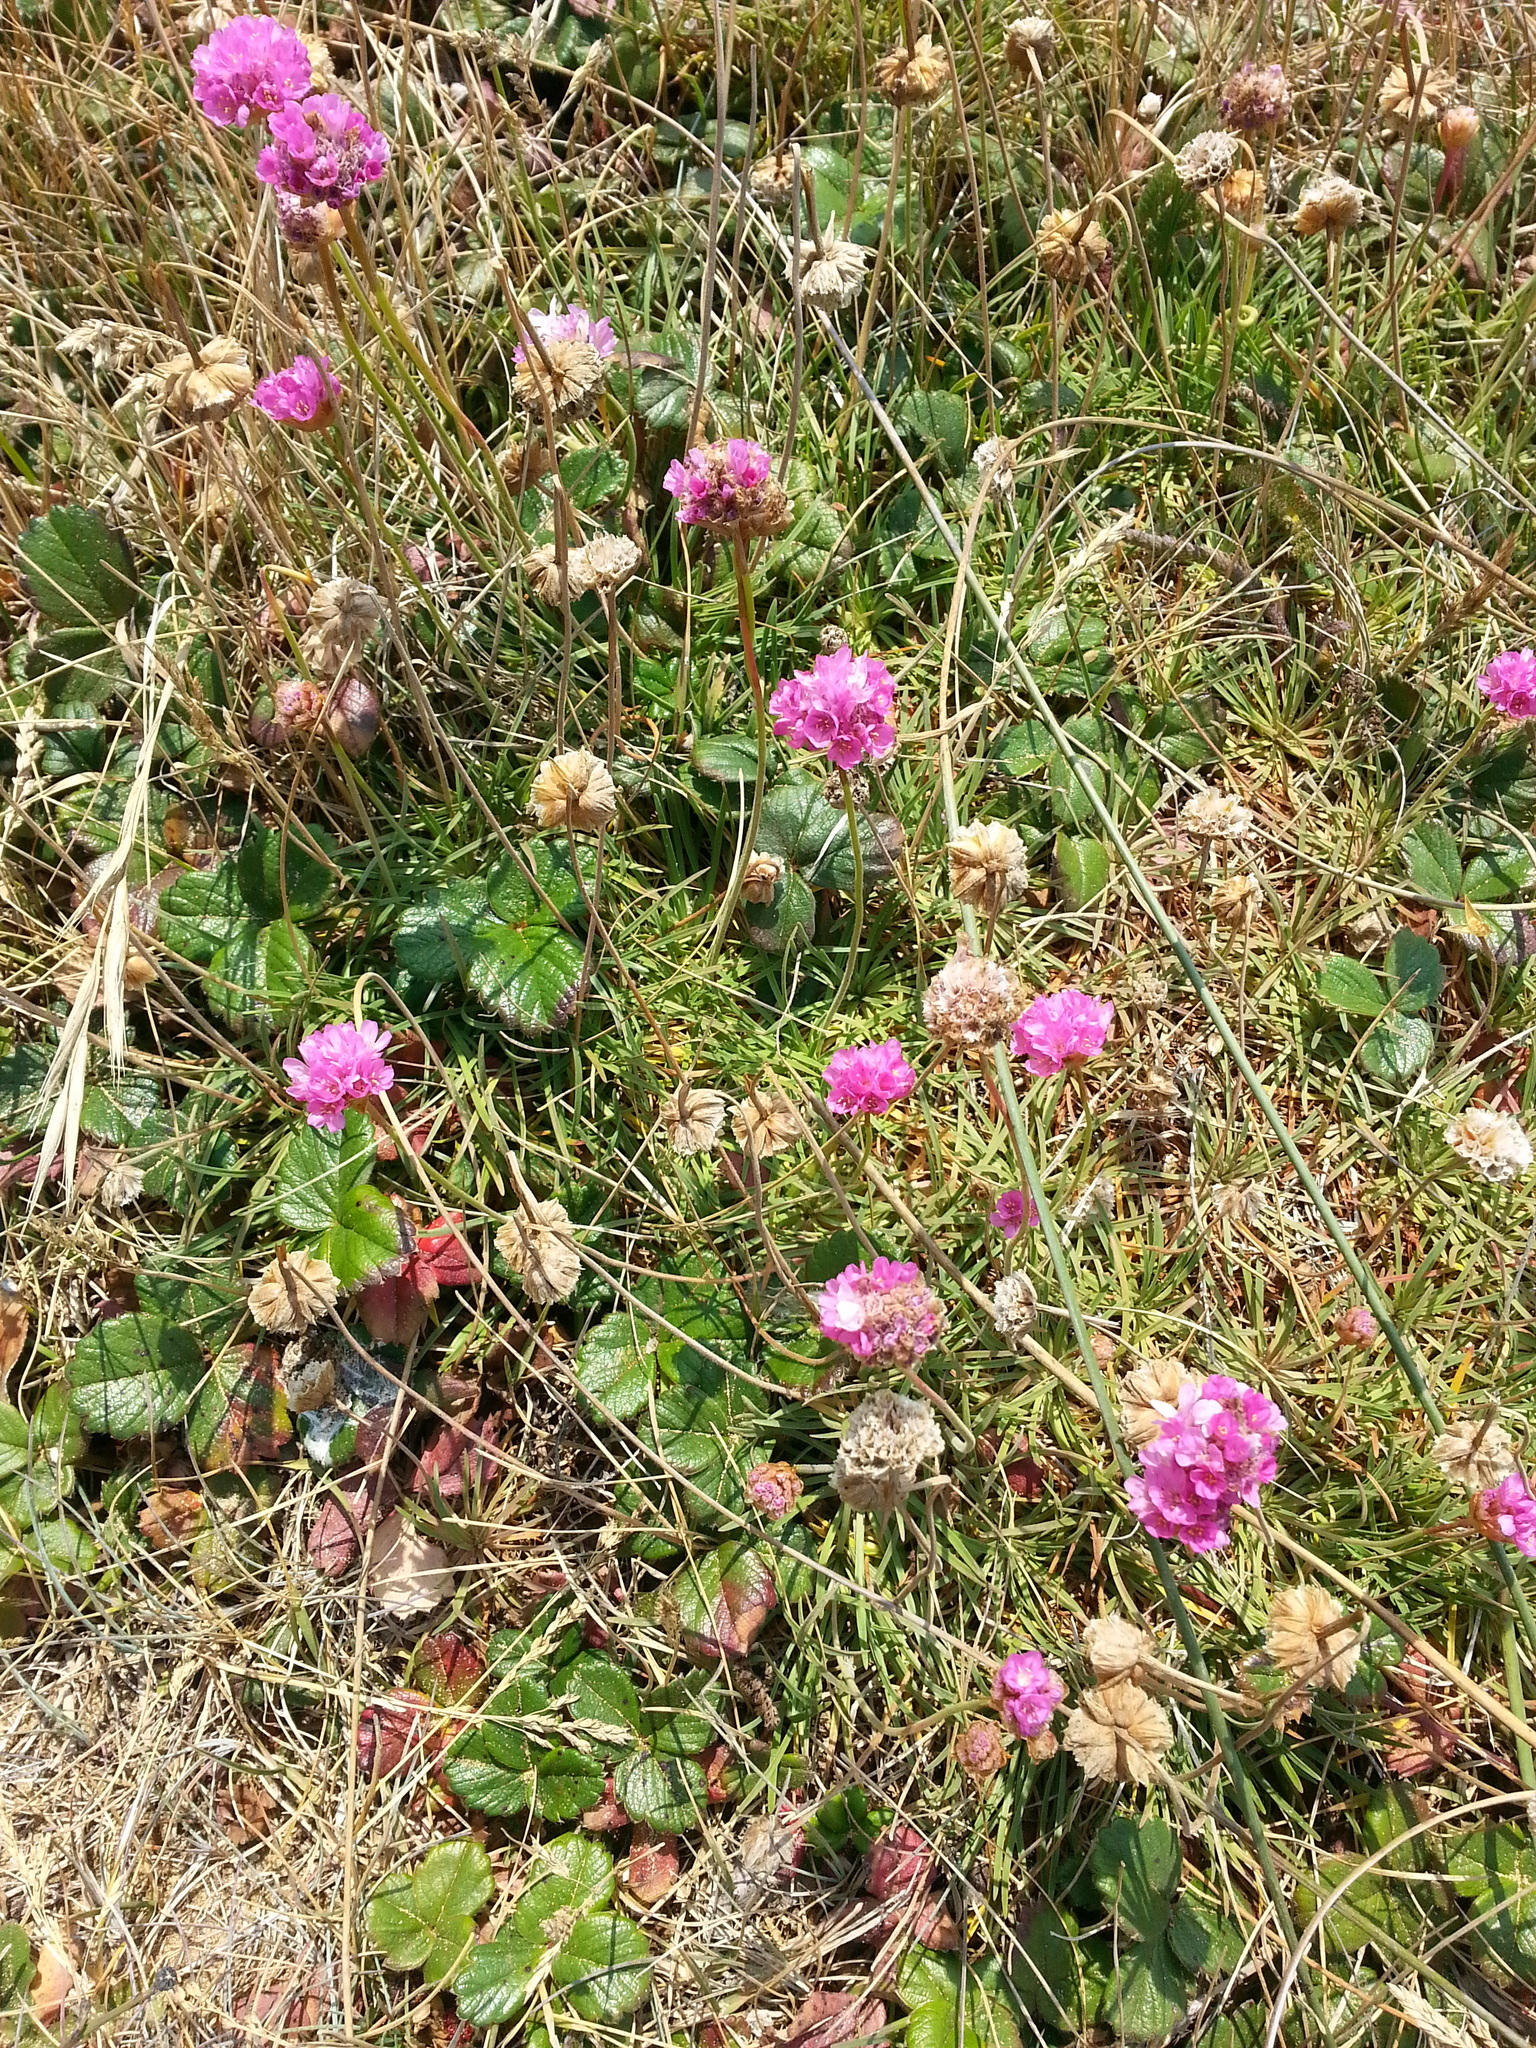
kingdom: Plantae
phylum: Tracheophyta
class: Magnoliopsida
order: Caryophyllales
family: Plumbaginaceae
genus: Armeria
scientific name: Armeria maritima
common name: Thrift
